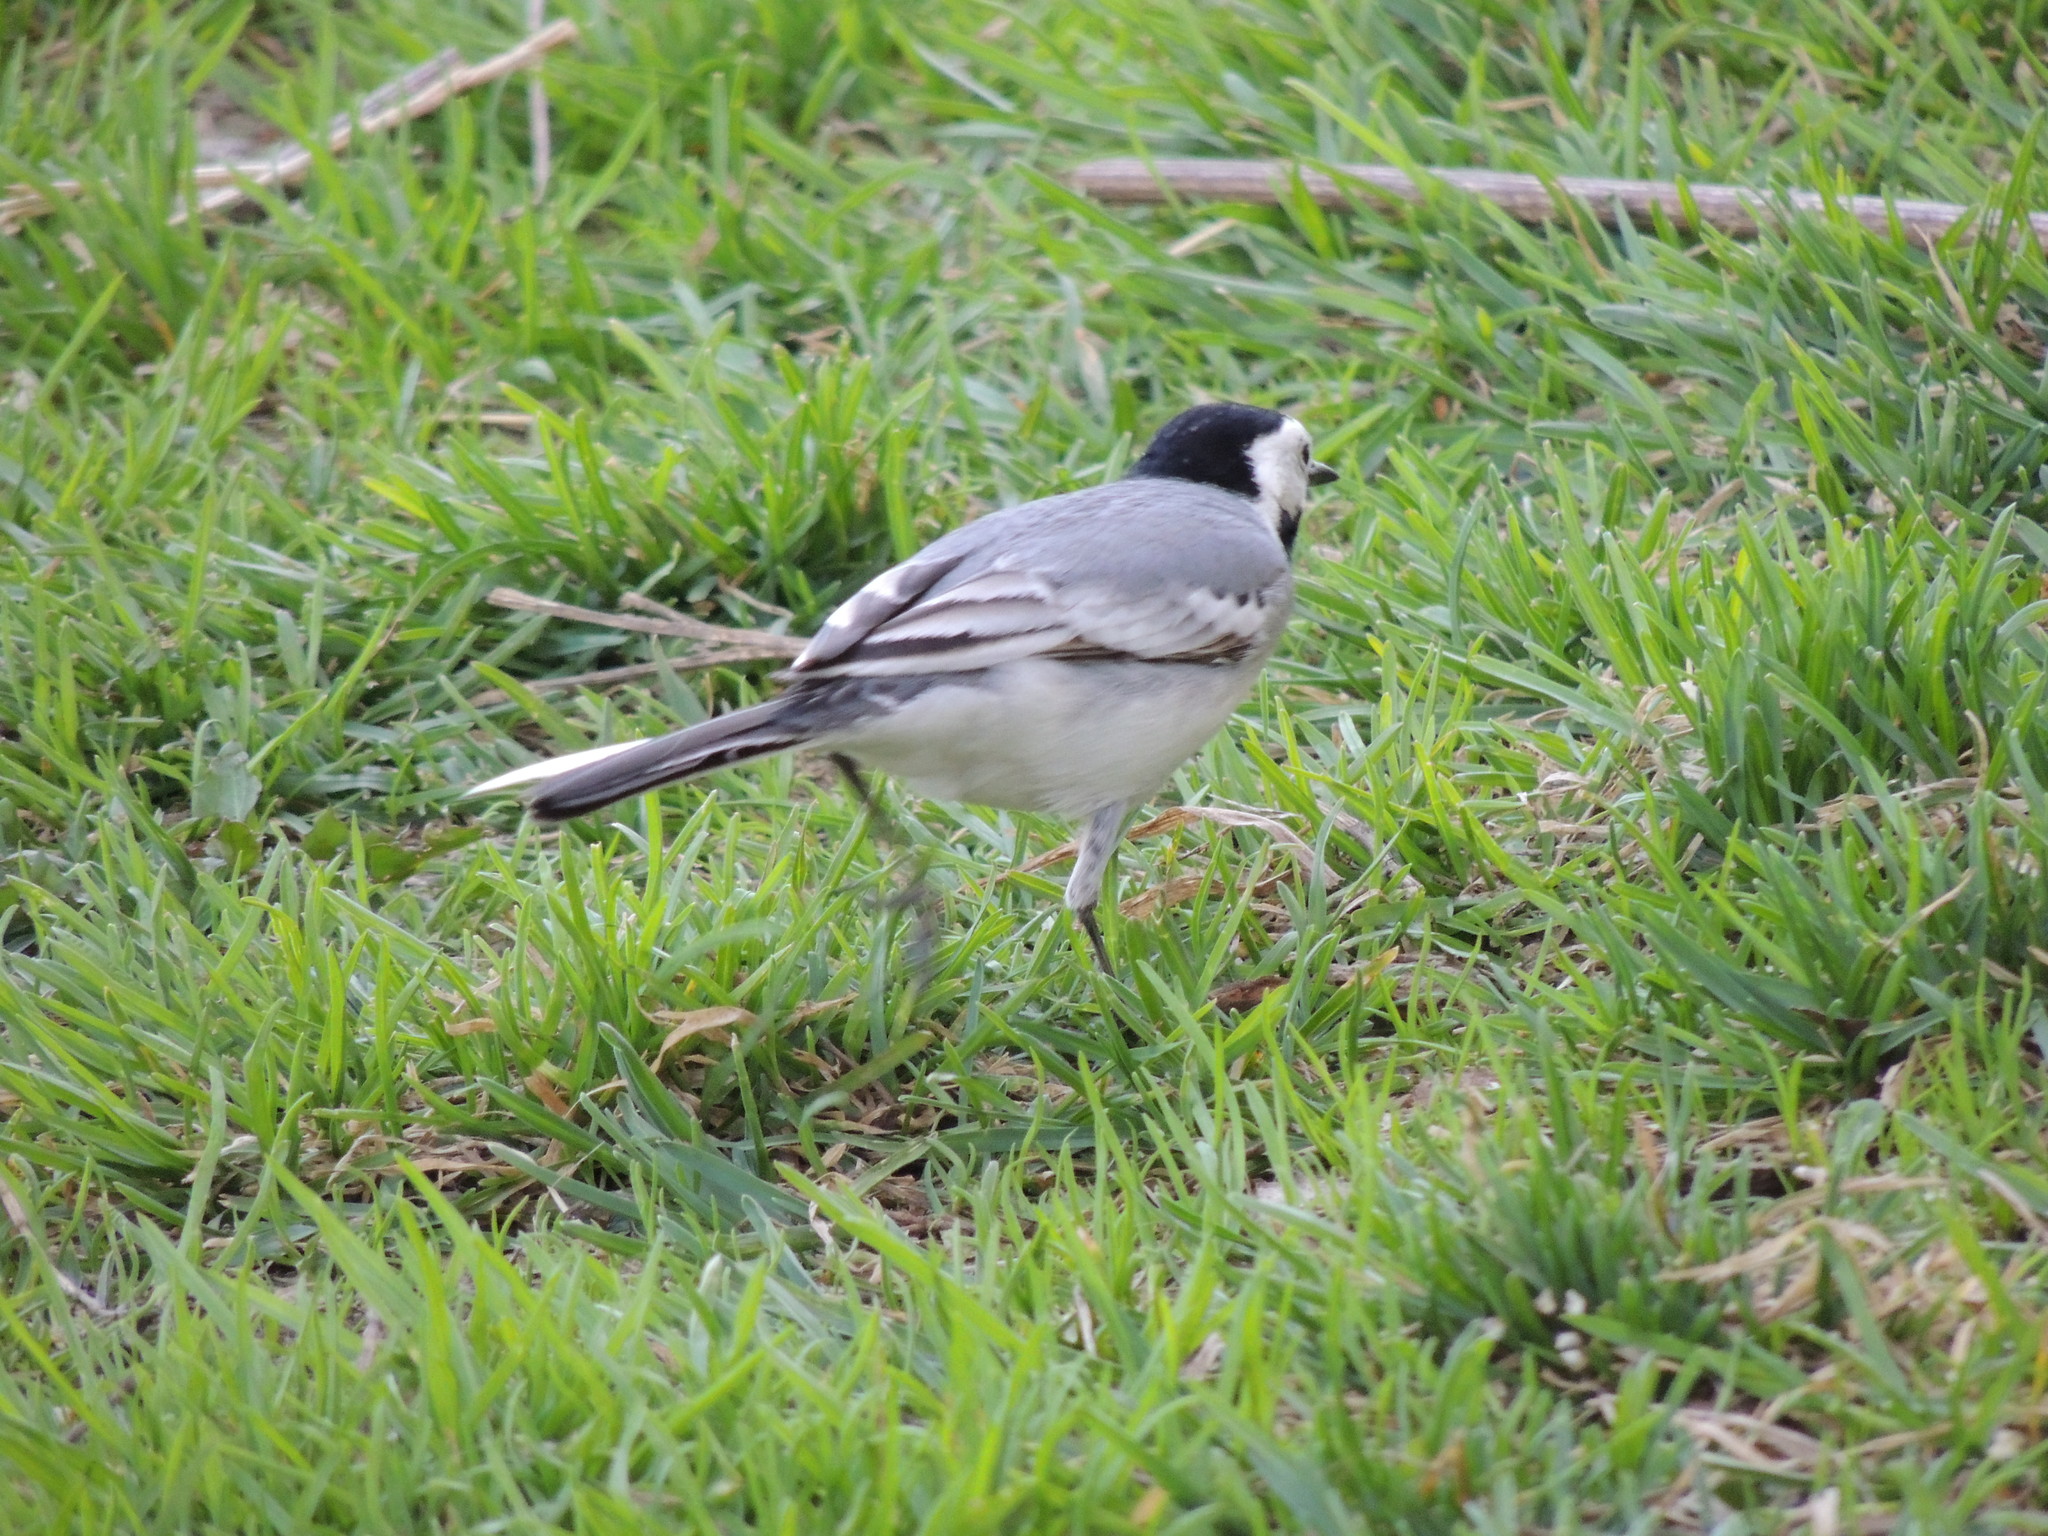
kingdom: Animalia
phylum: Chordata
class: Aves
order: Passeriformes
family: Motacillidae
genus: Motacilla
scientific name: Motacilla alba
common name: White wagtail
